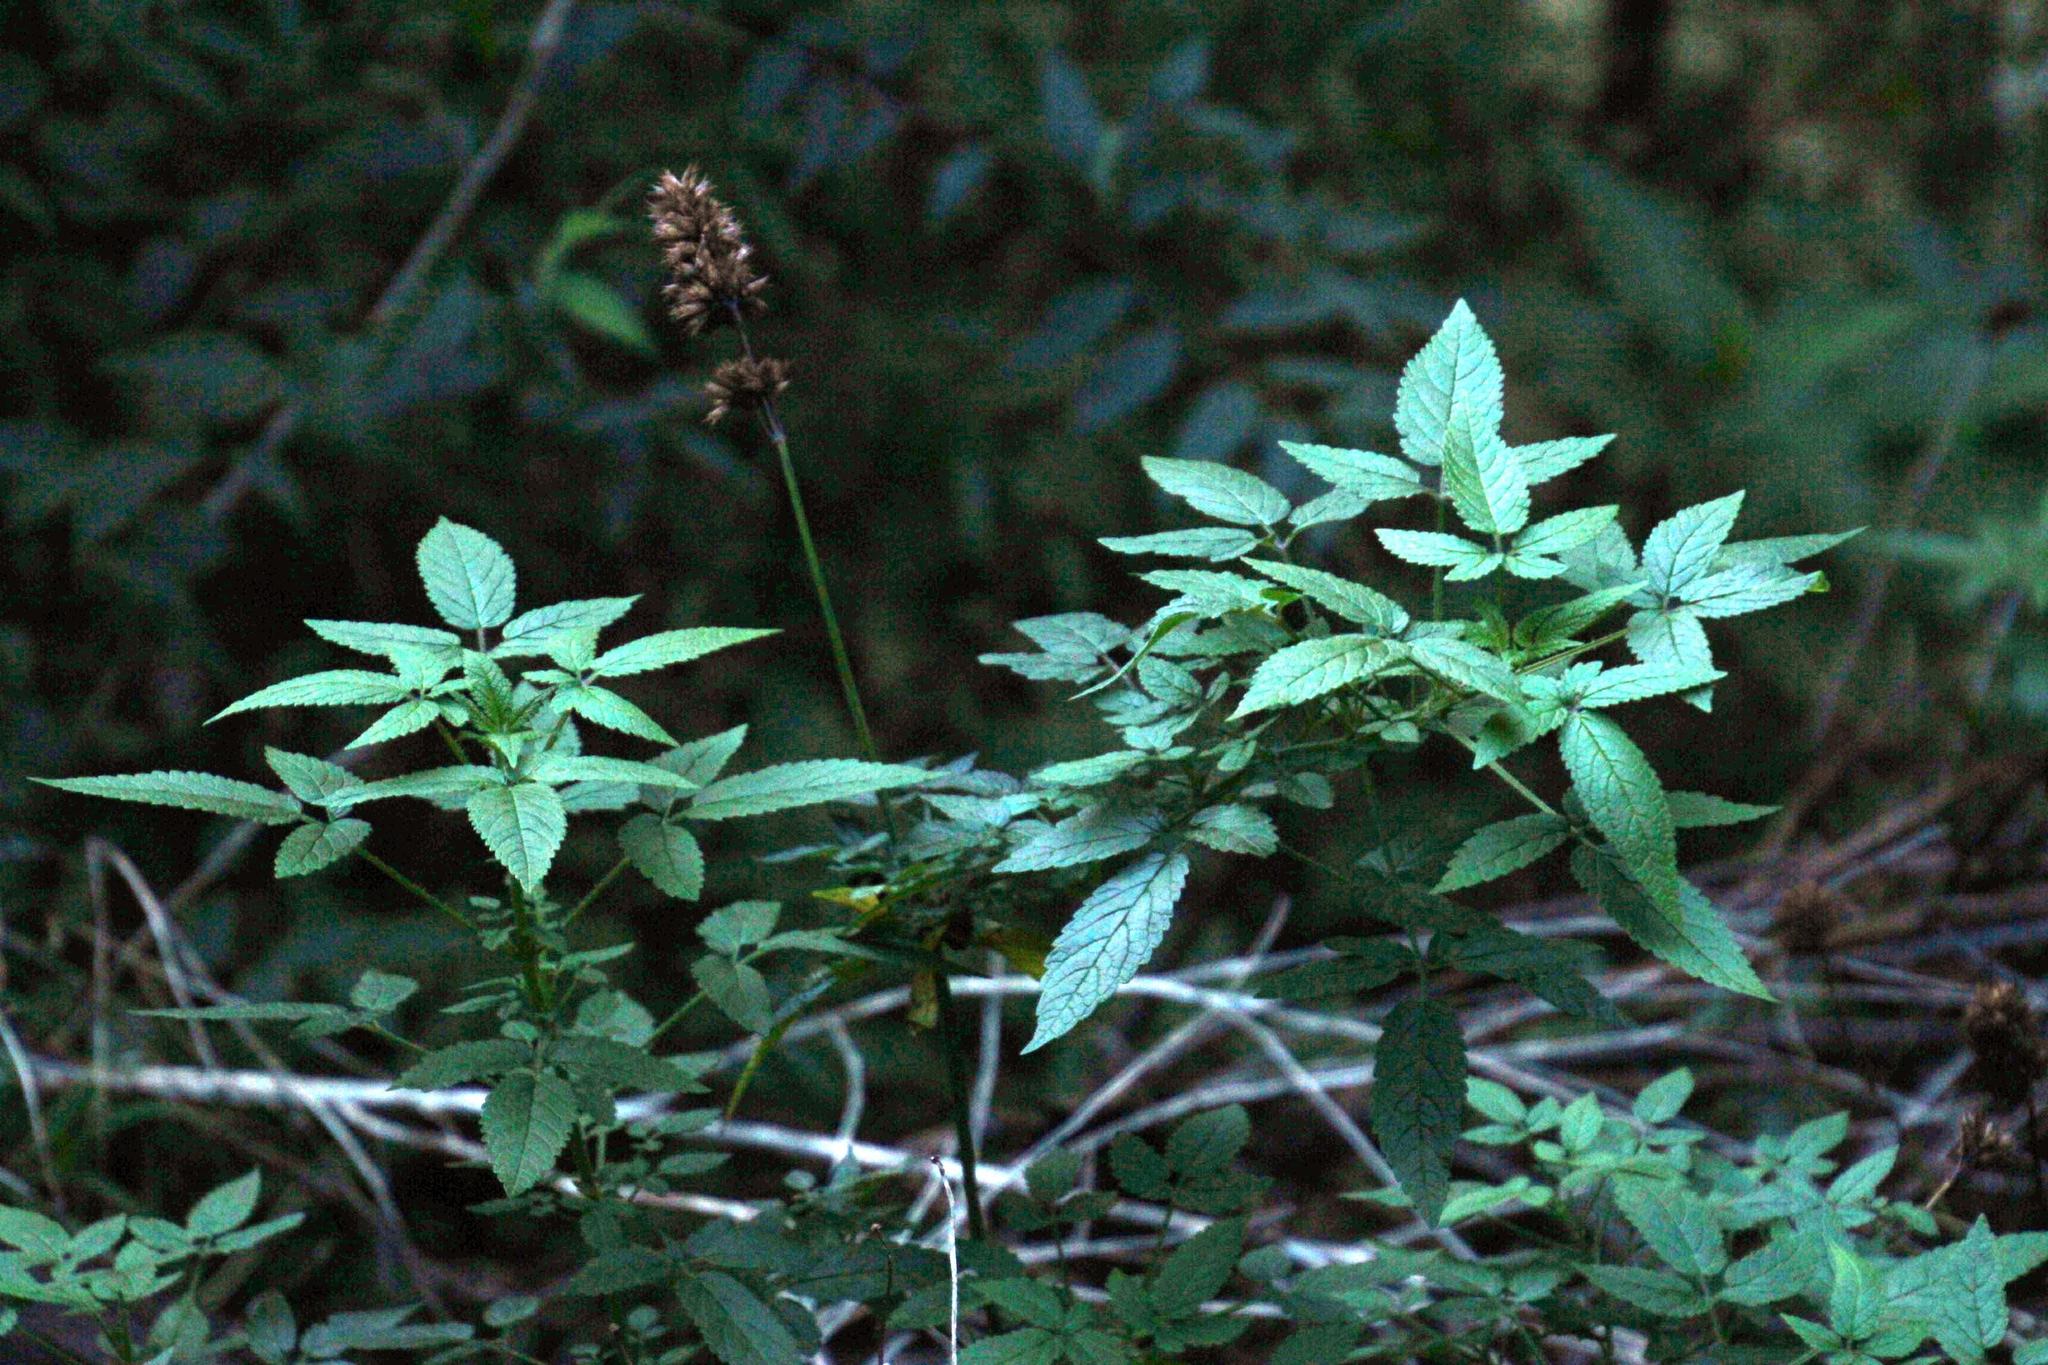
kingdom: Plantae
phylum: Tracheophyta
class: Magnoliopsida
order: Lamiales
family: Lamiaceae
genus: Cedronella
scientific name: Cedronella canariensis
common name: Canary islands balm
